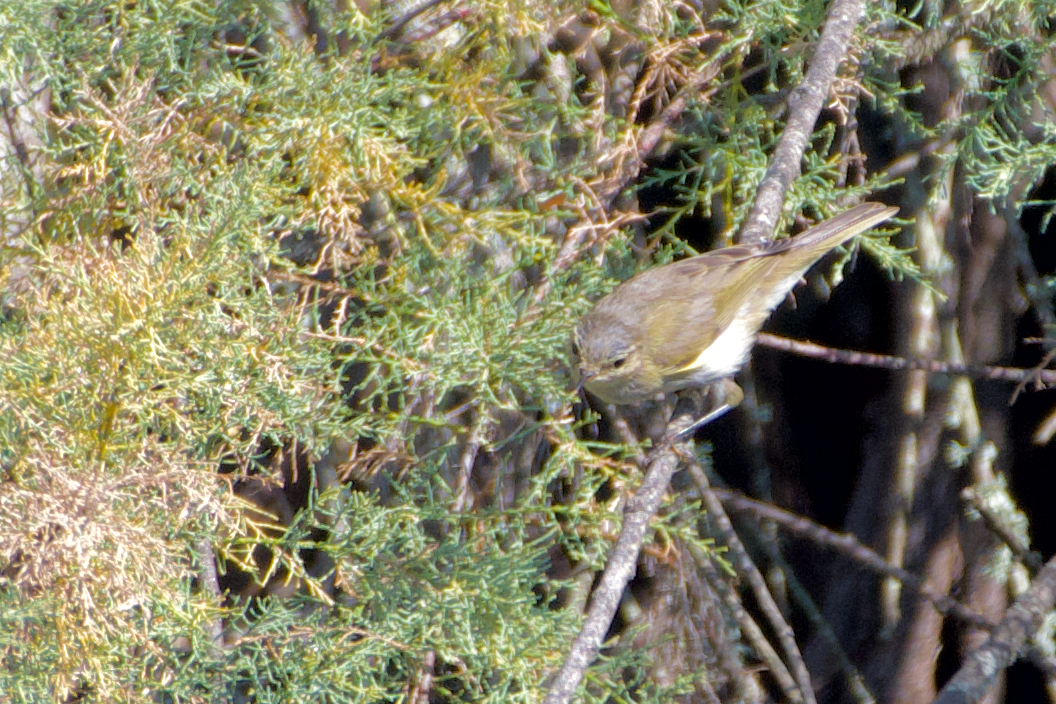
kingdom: Animalia
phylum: Chordata
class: Aves
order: Passeriformes
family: Phylloscopidae
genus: Phylloscopus
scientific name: Phylloscopus bonelli
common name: Western bonelli's warbler
